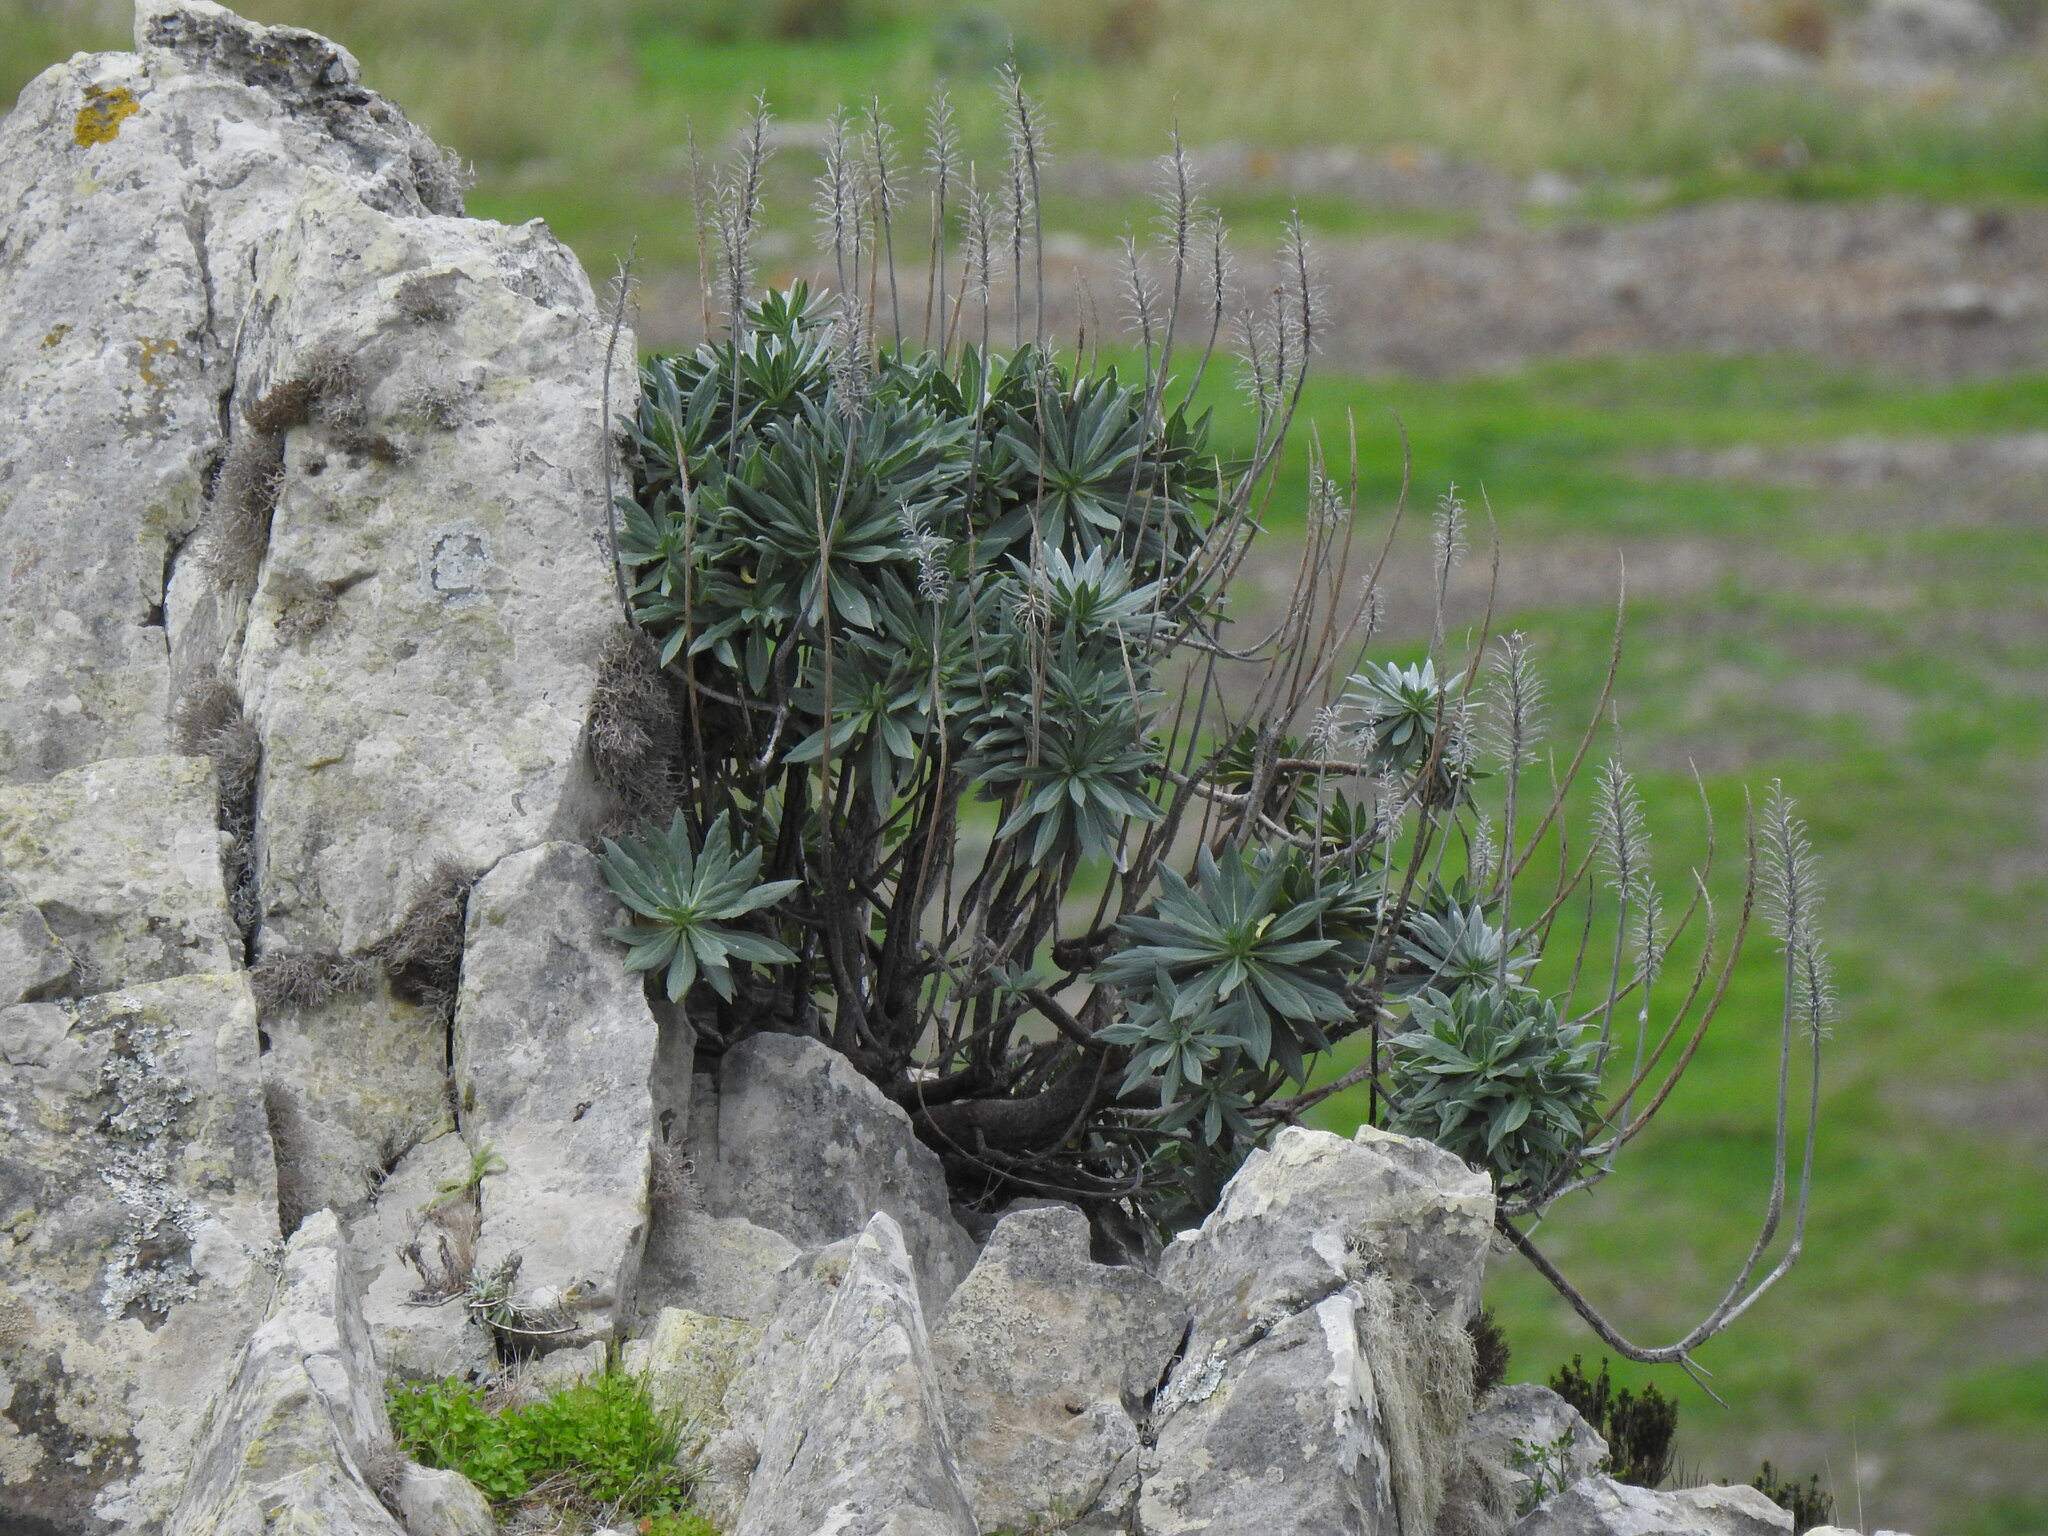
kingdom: Plantae
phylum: Tracheophyta
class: Magnoliopsida
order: Boraginales
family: Boraginaceae
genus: Echium
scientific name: Echium portosanctense
